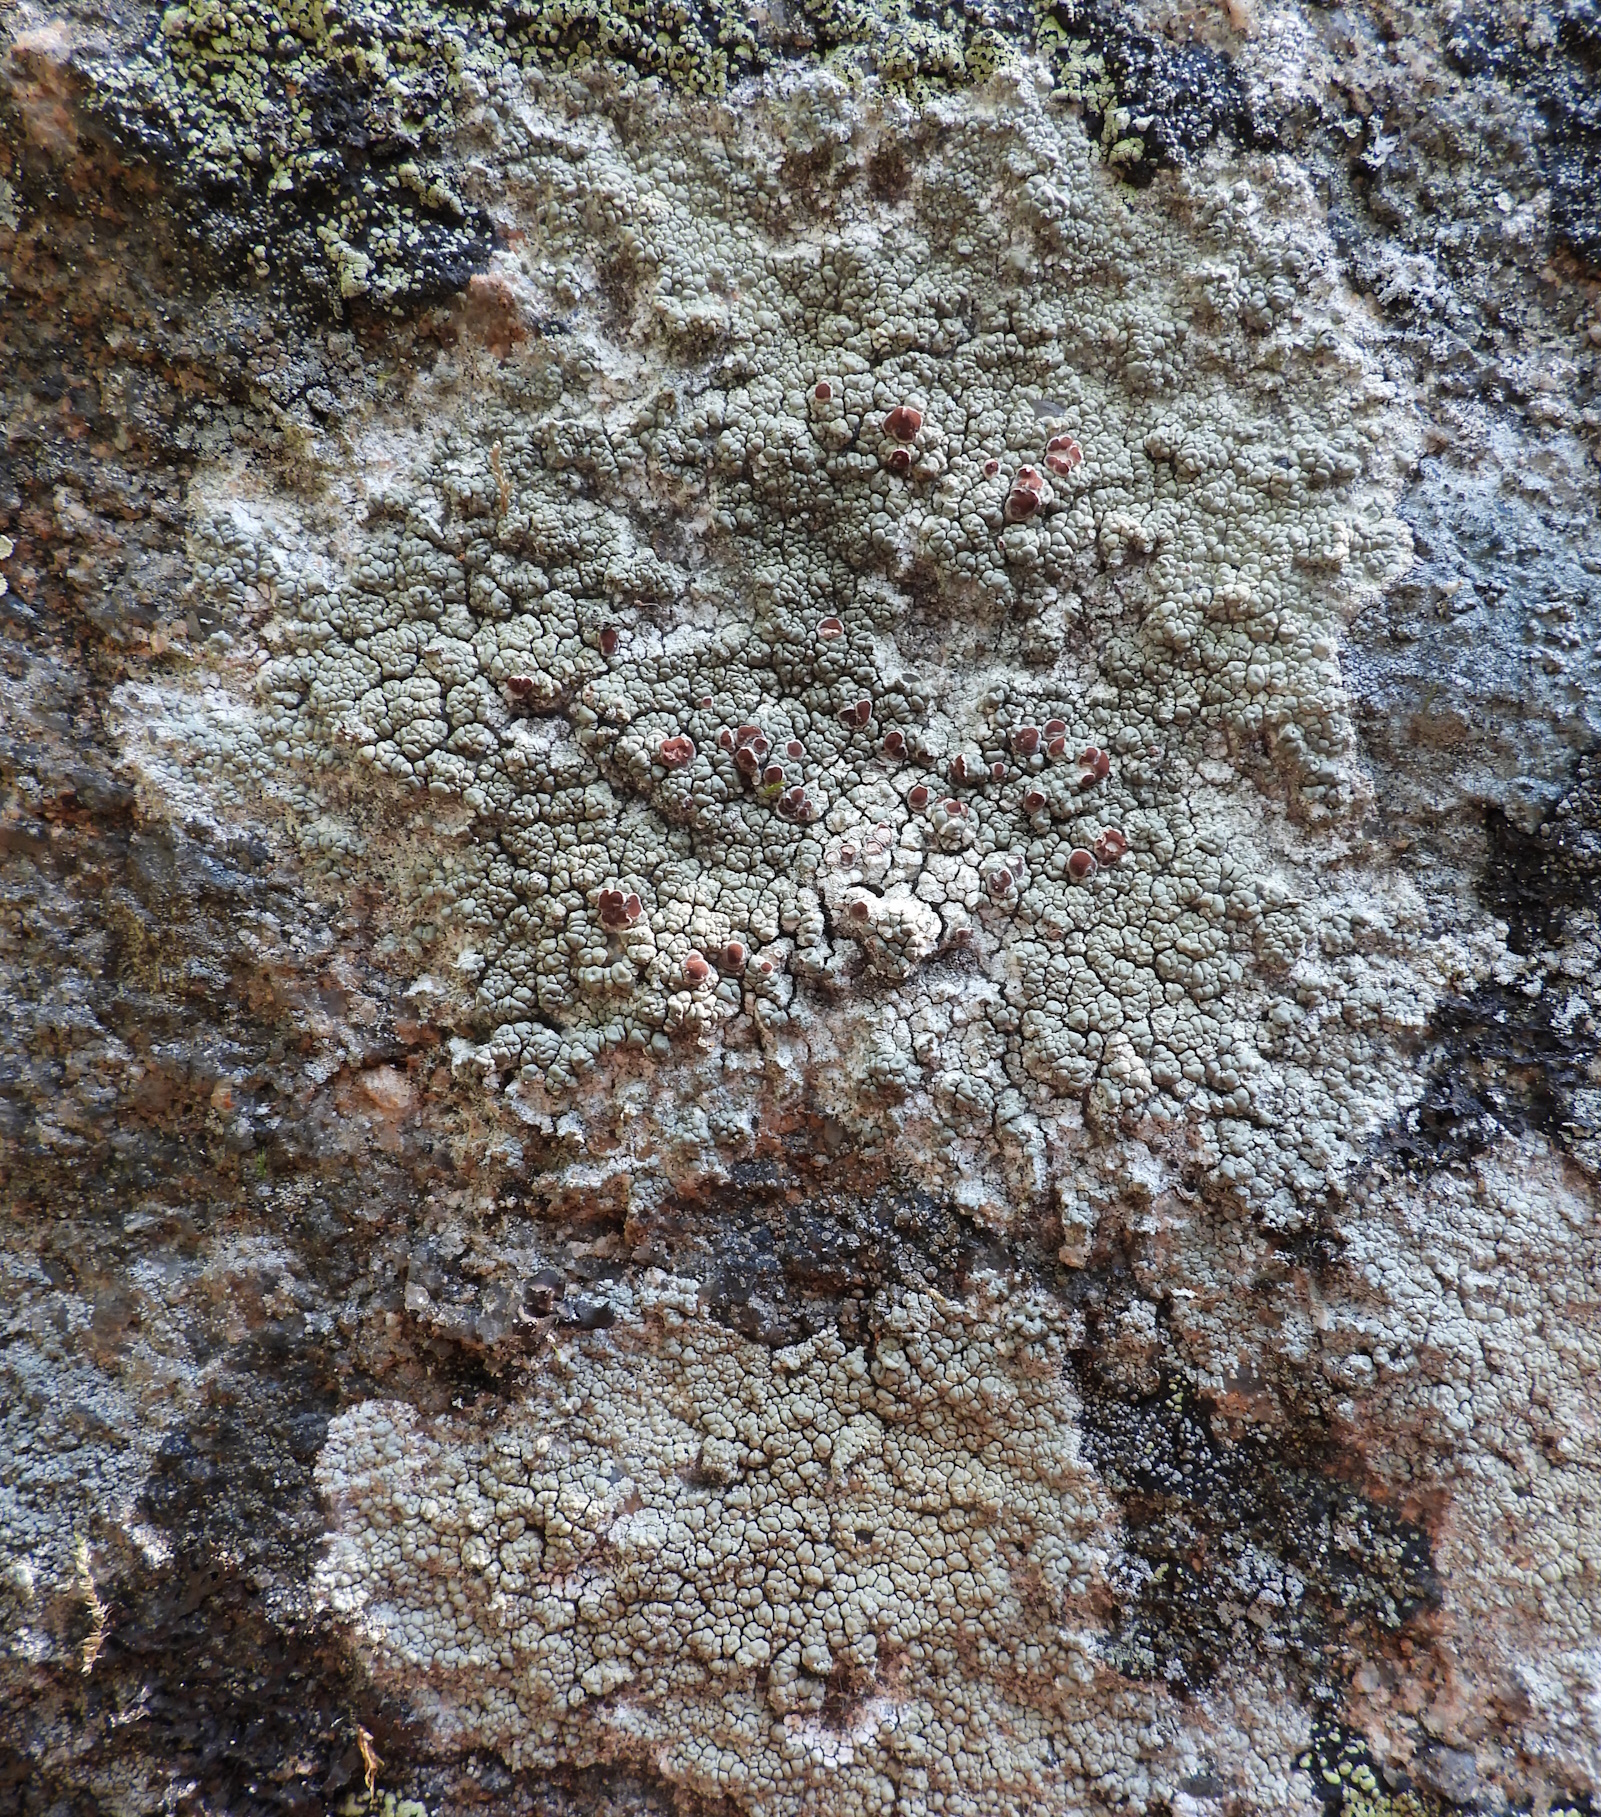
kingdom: Fungi
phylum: Ascomycota
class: Lecanoromycetes
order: Umbilicariales
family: Ophioparmaceae
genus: Ophioparma
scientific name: Ophioparma ventosa
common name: Blood-spot
